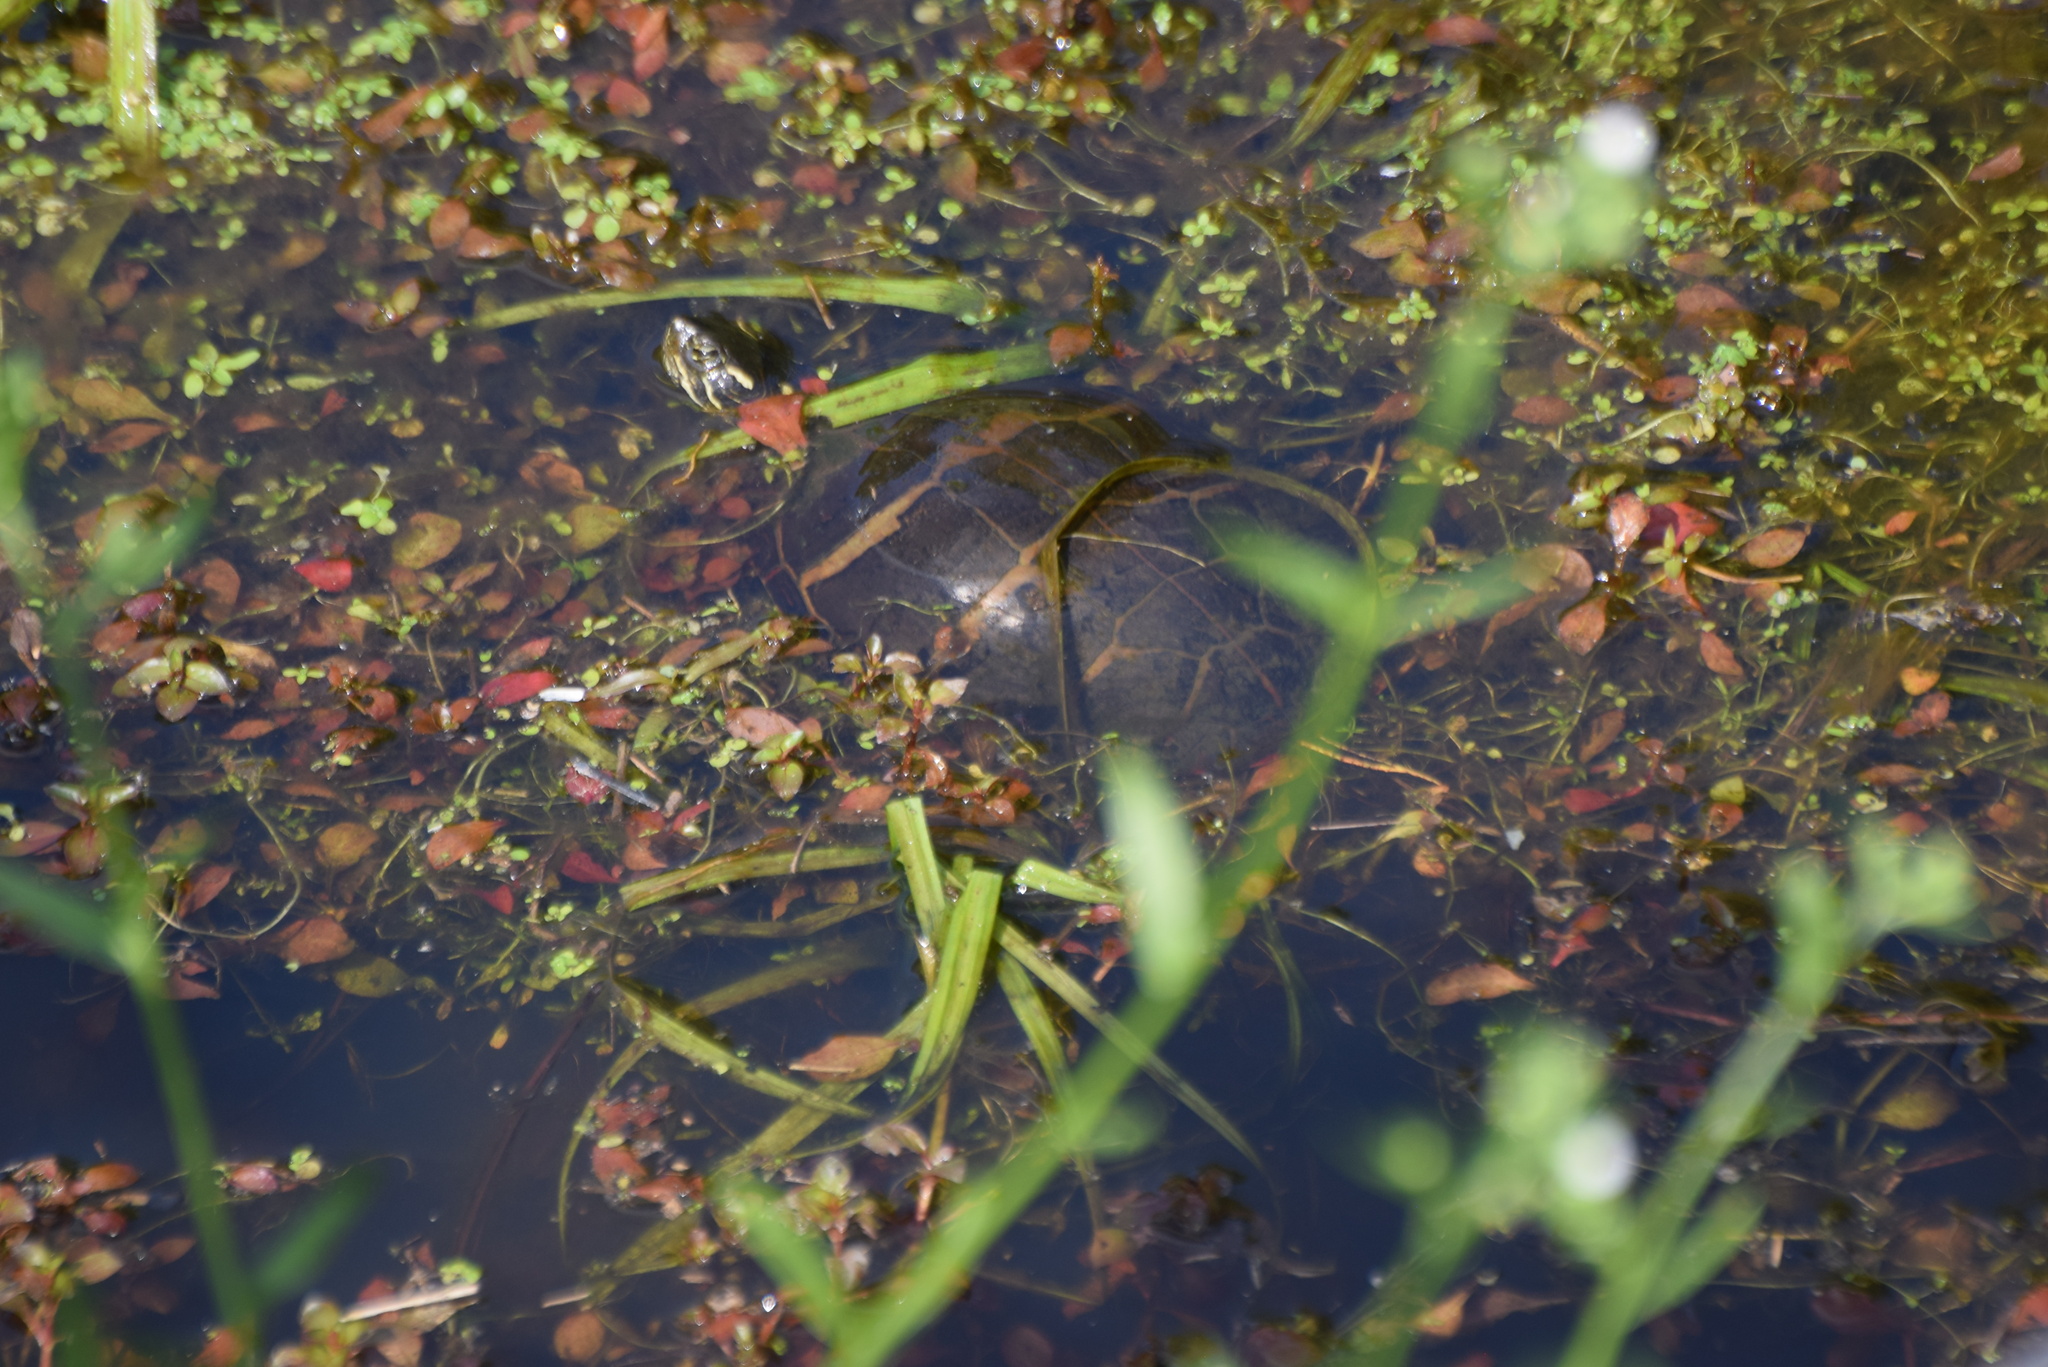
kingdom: Animalia
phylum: Chordata
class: Testudines
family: Emydidae
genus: Chrysemys
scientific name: Chrysemys picta
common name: Painted turtle
